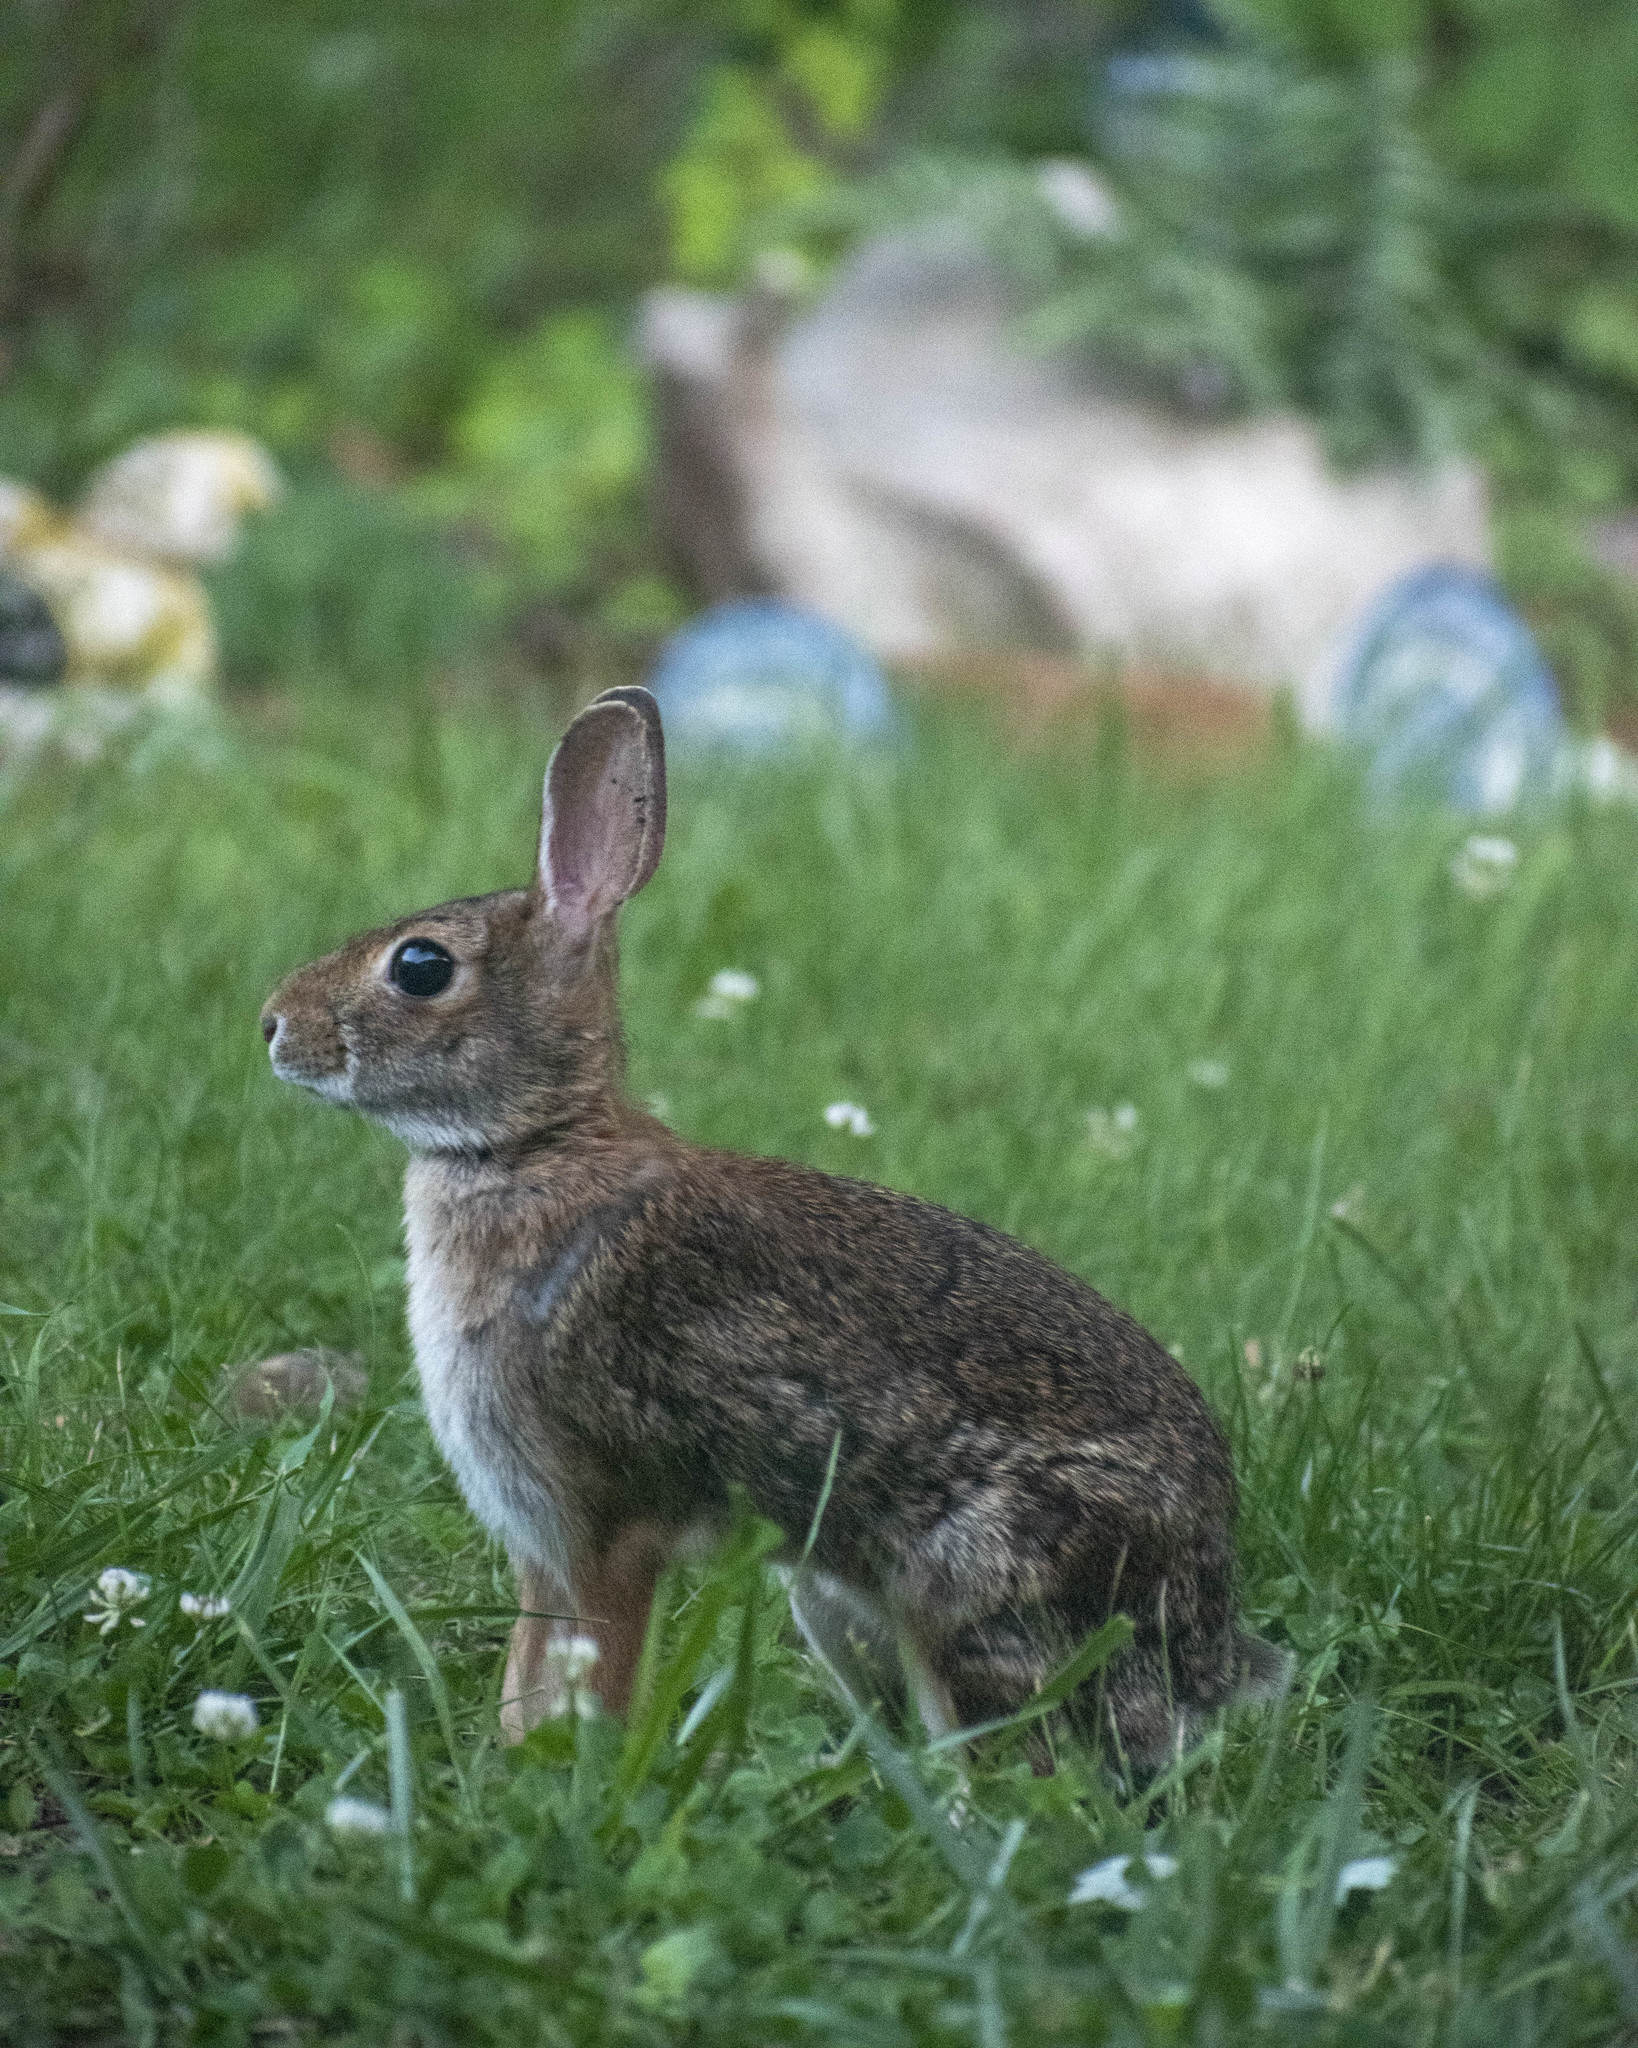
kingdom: Animalia
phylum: Chordata
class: Mammalia
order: Lagomorpha
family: Leporidae
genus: Sylvilagus
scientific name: Sylvilagus floridanus
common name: Eastern cottontail
